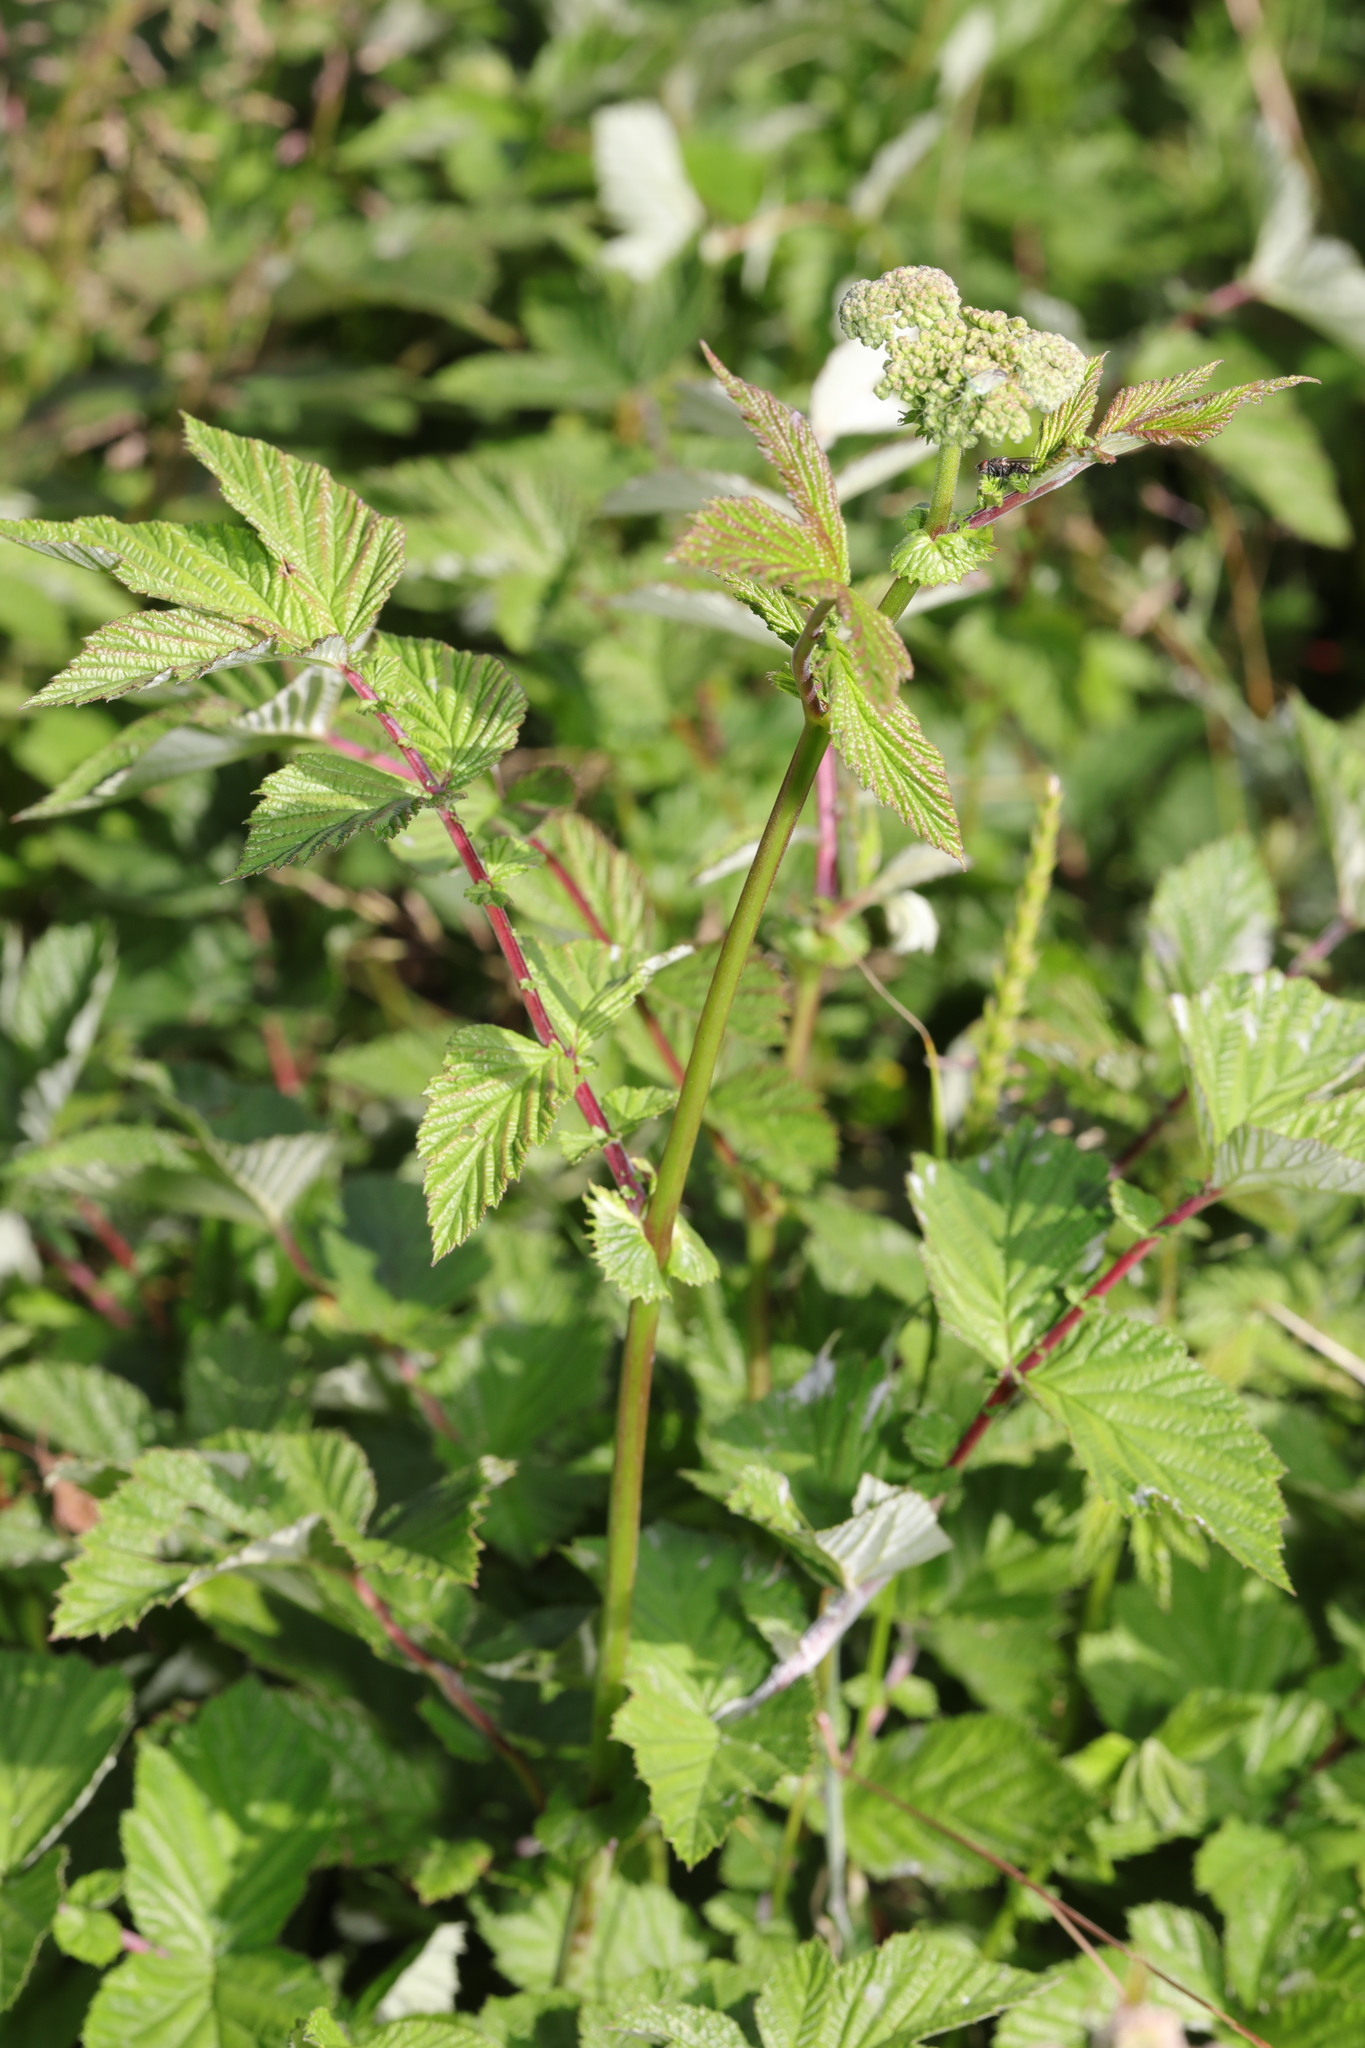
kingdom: Plantae
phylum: Tracheophyta
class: Magnoliopsida
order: Rosales
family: Rosaceae
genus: Filipendula
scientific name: Filipendula ulmaria
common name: Meadowsweet
